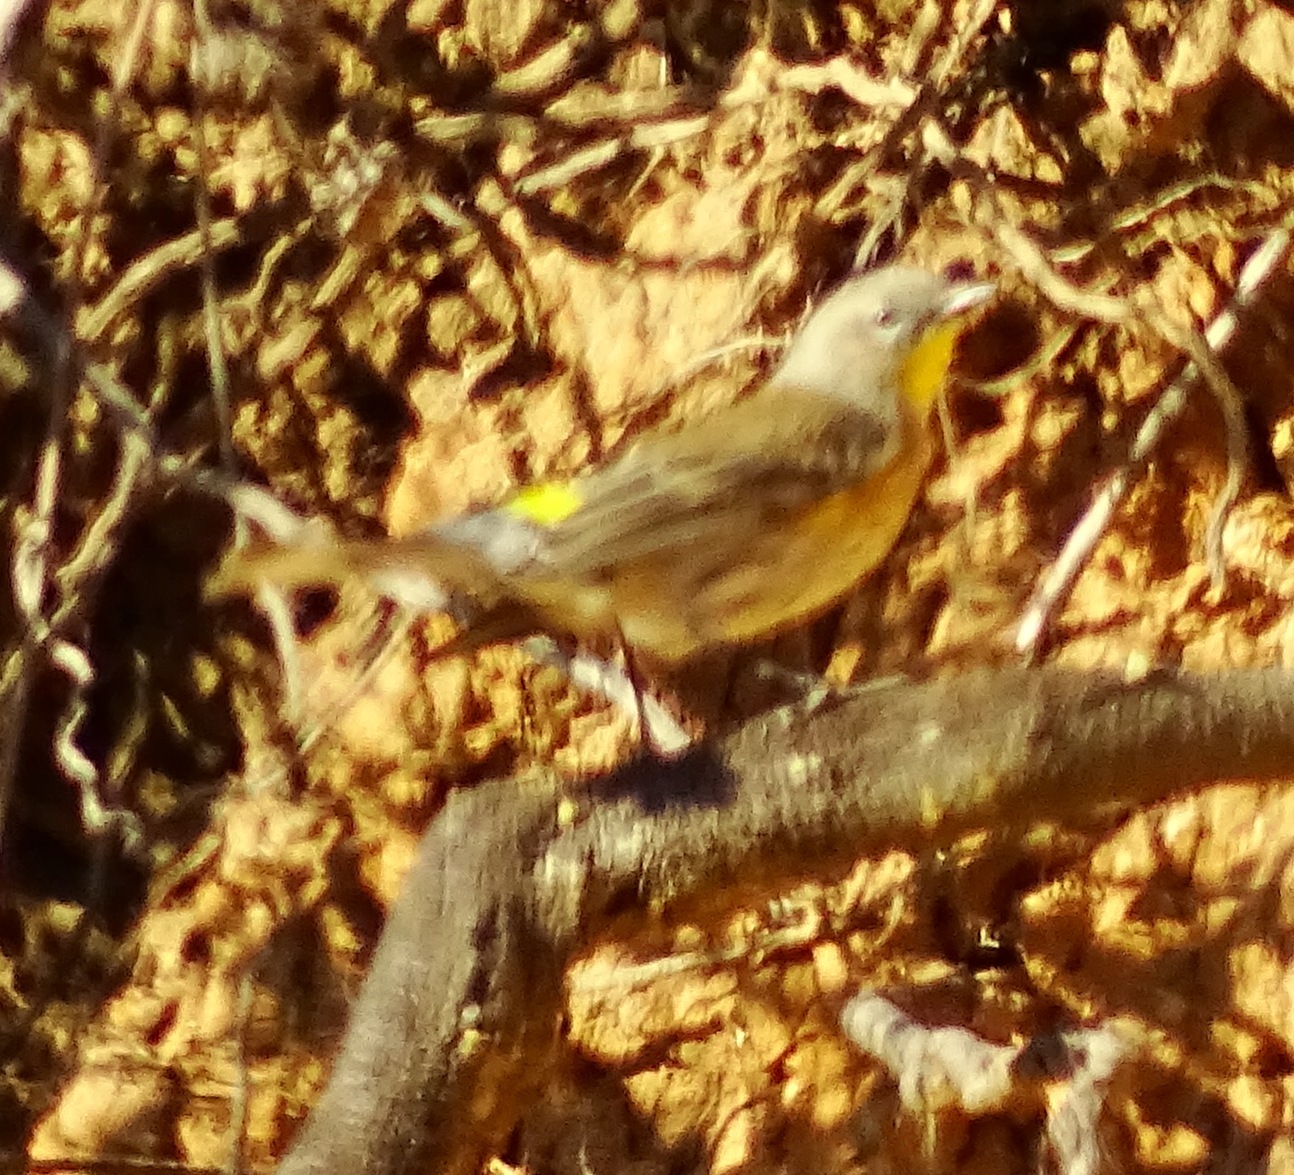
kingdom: Animalia
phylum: Chordata
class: Aves
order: Passeriformes
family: Parulidae
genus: Setophaga
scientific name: Setophaga coronata
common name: Myrtle warbler
